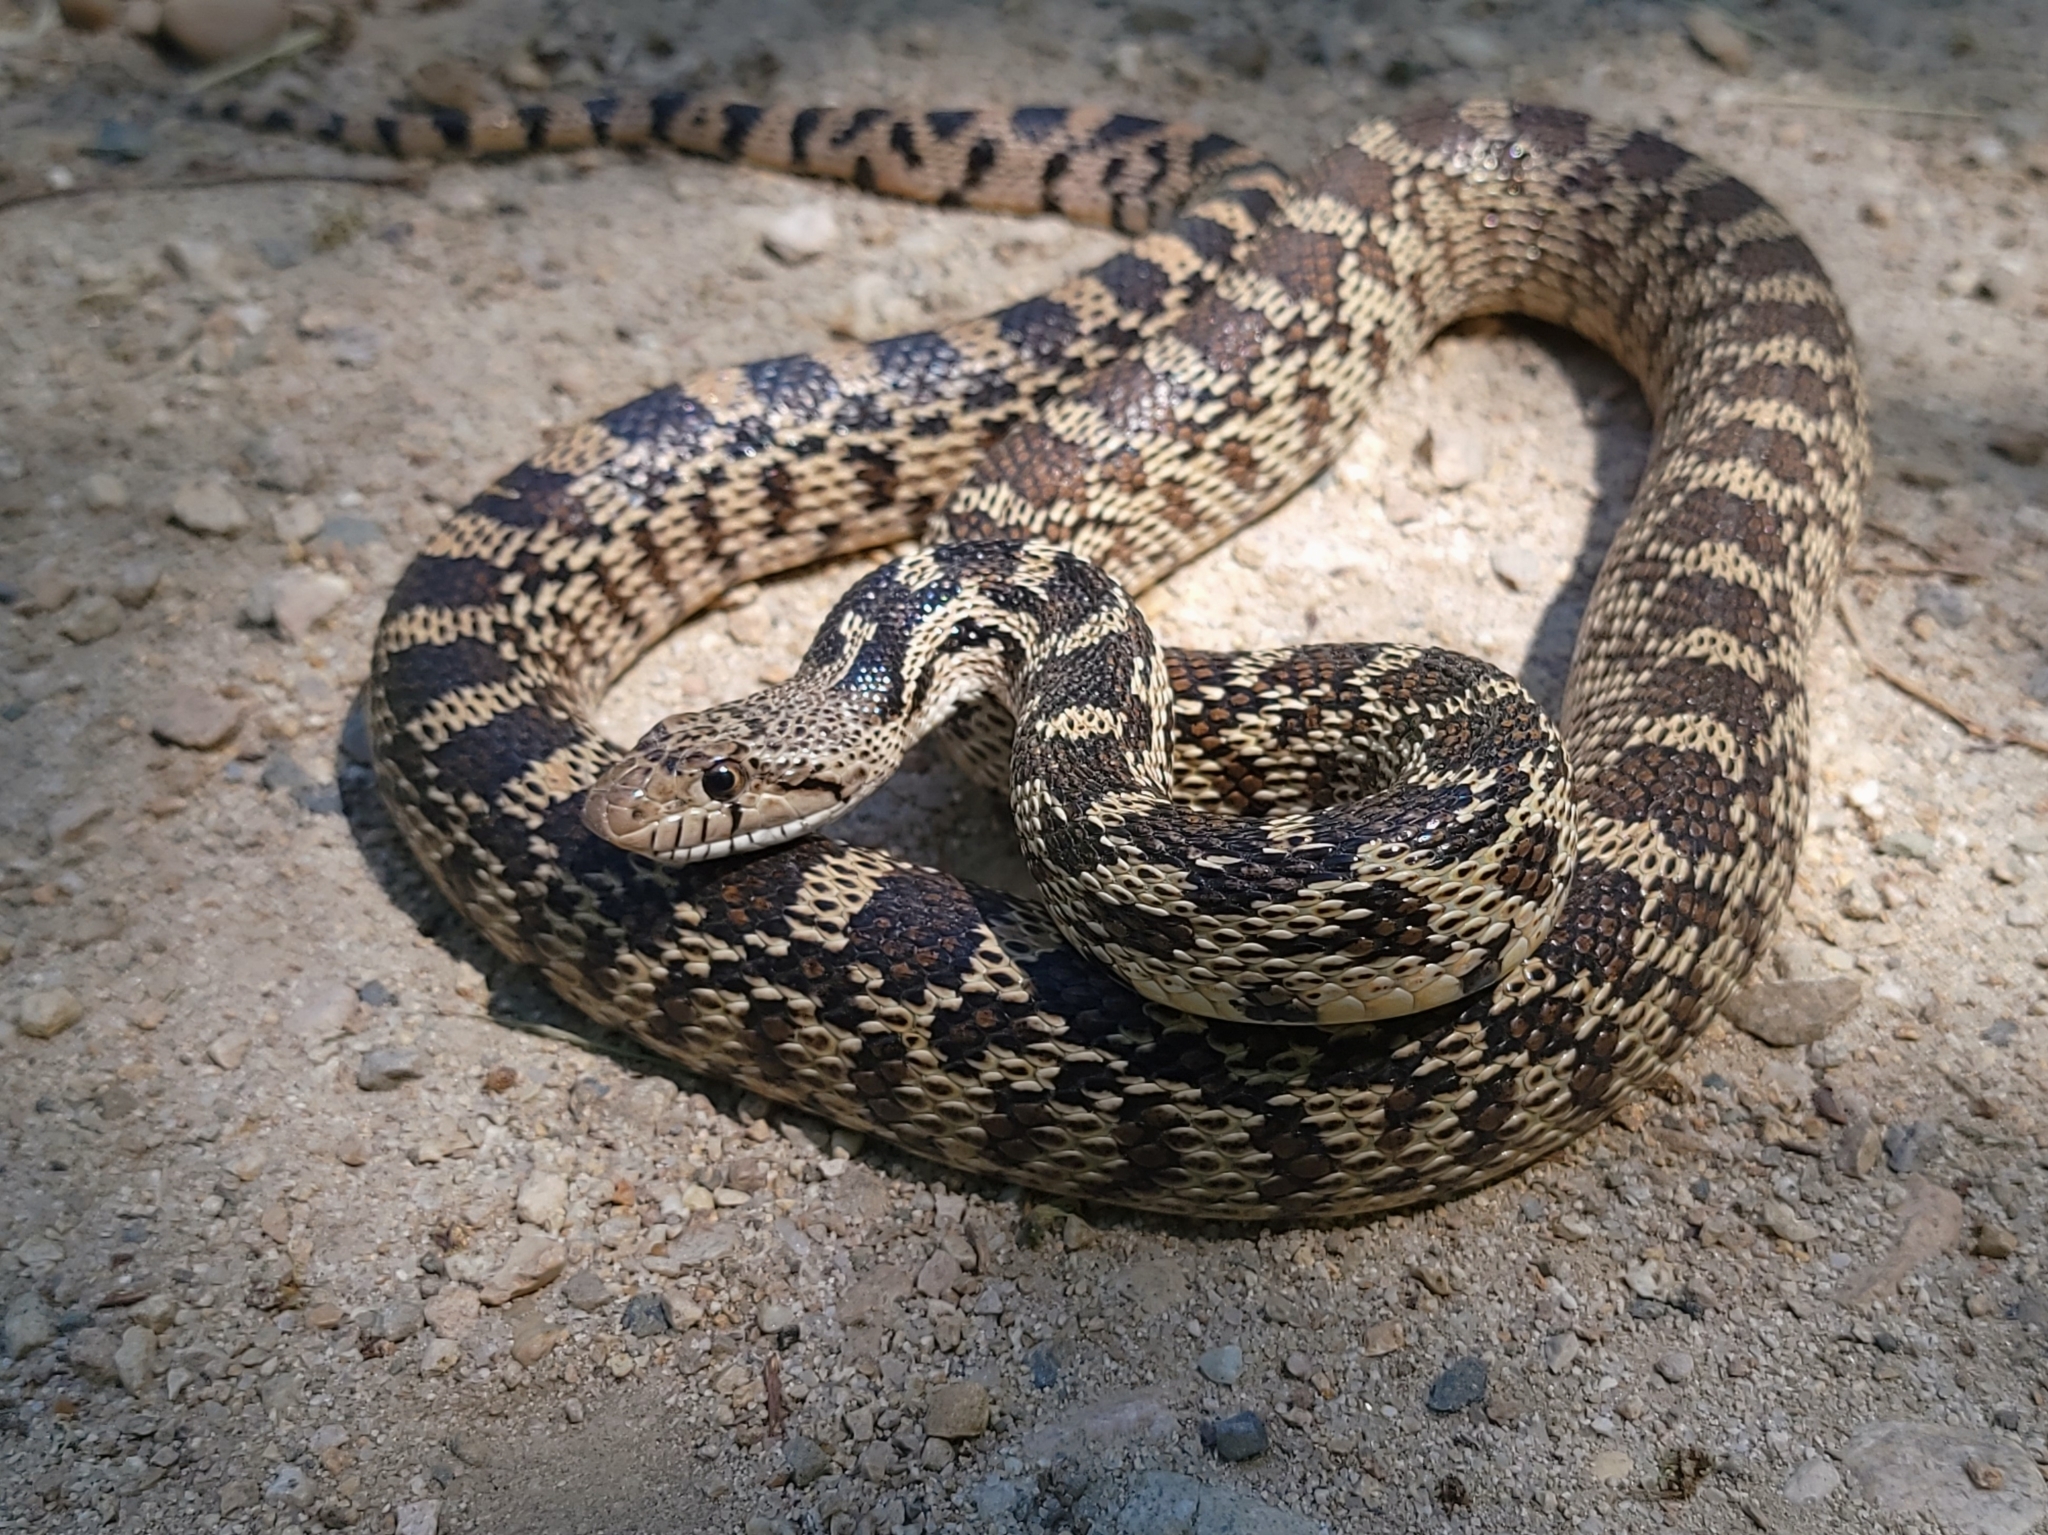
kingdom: Animalia
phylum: Chordata
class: Squamata
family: Colubridae
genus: Pituophis
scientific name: Pituophis catenifer
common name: Gopher snake
